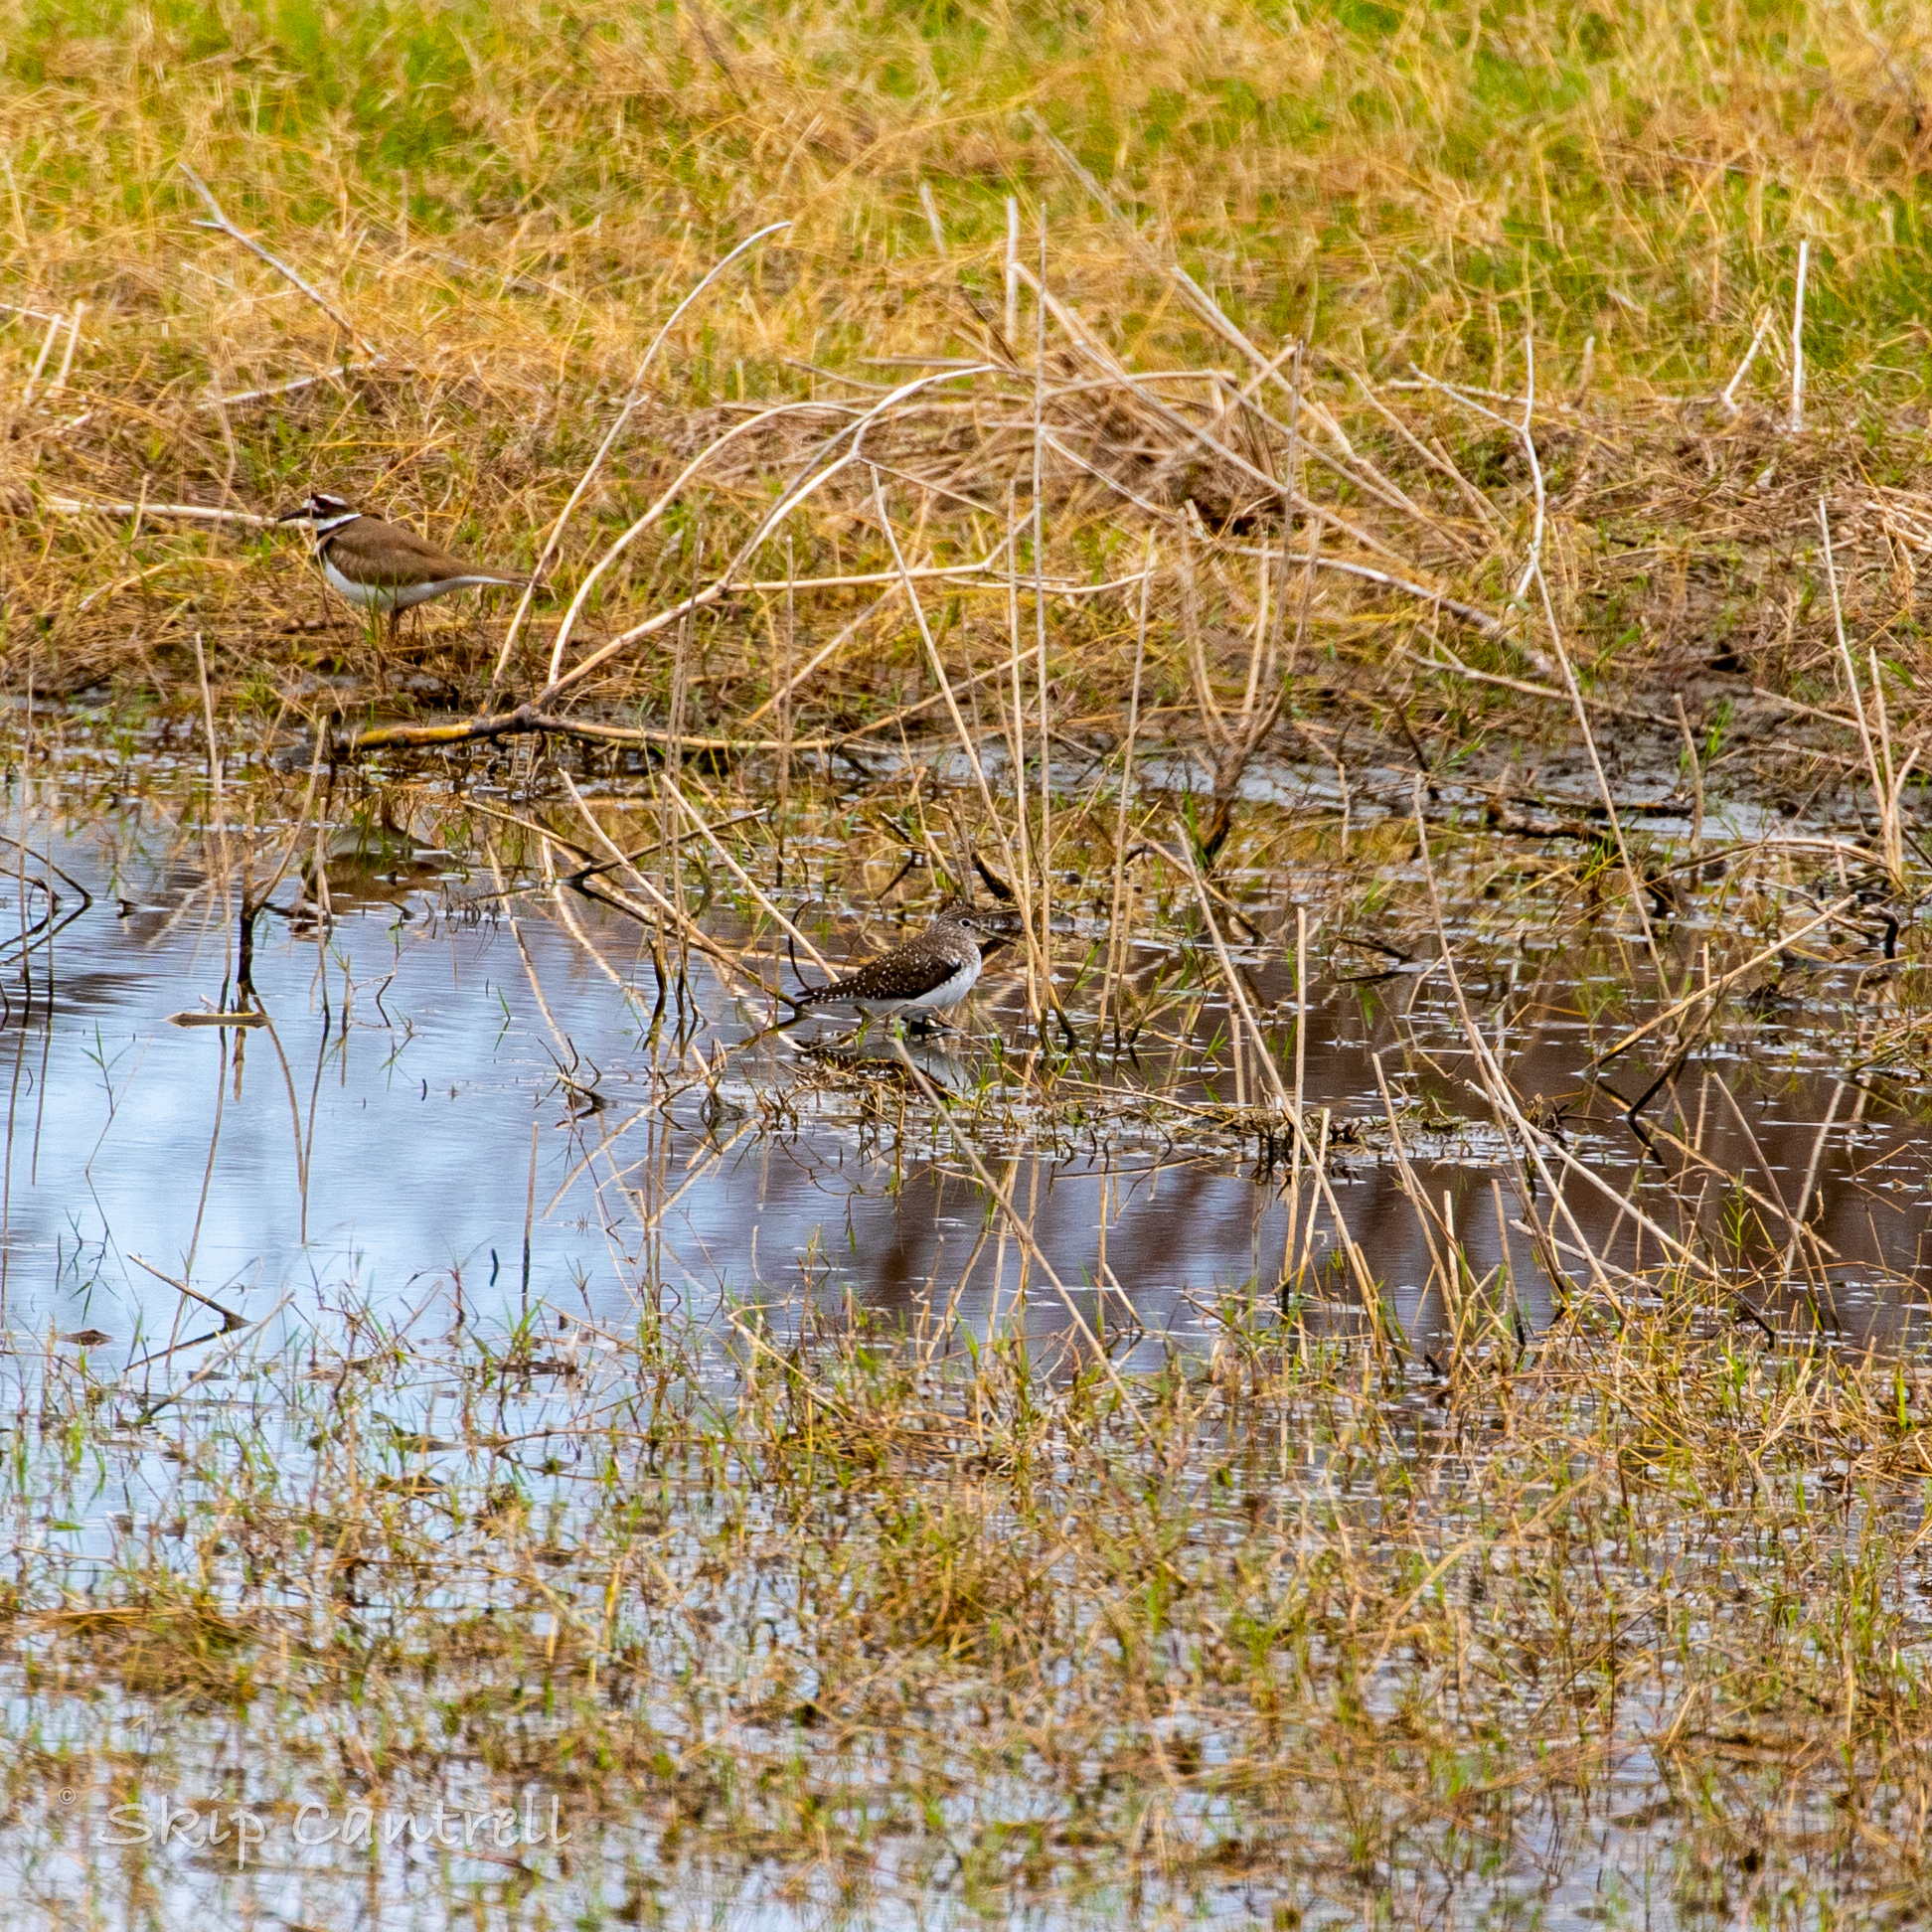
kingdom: Animalia
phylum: Chordata
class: Aves
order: Charadriiformes
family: Scolopacidae
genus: Tringa
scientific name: Tringa solitaria
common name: Solitary sandpiper
